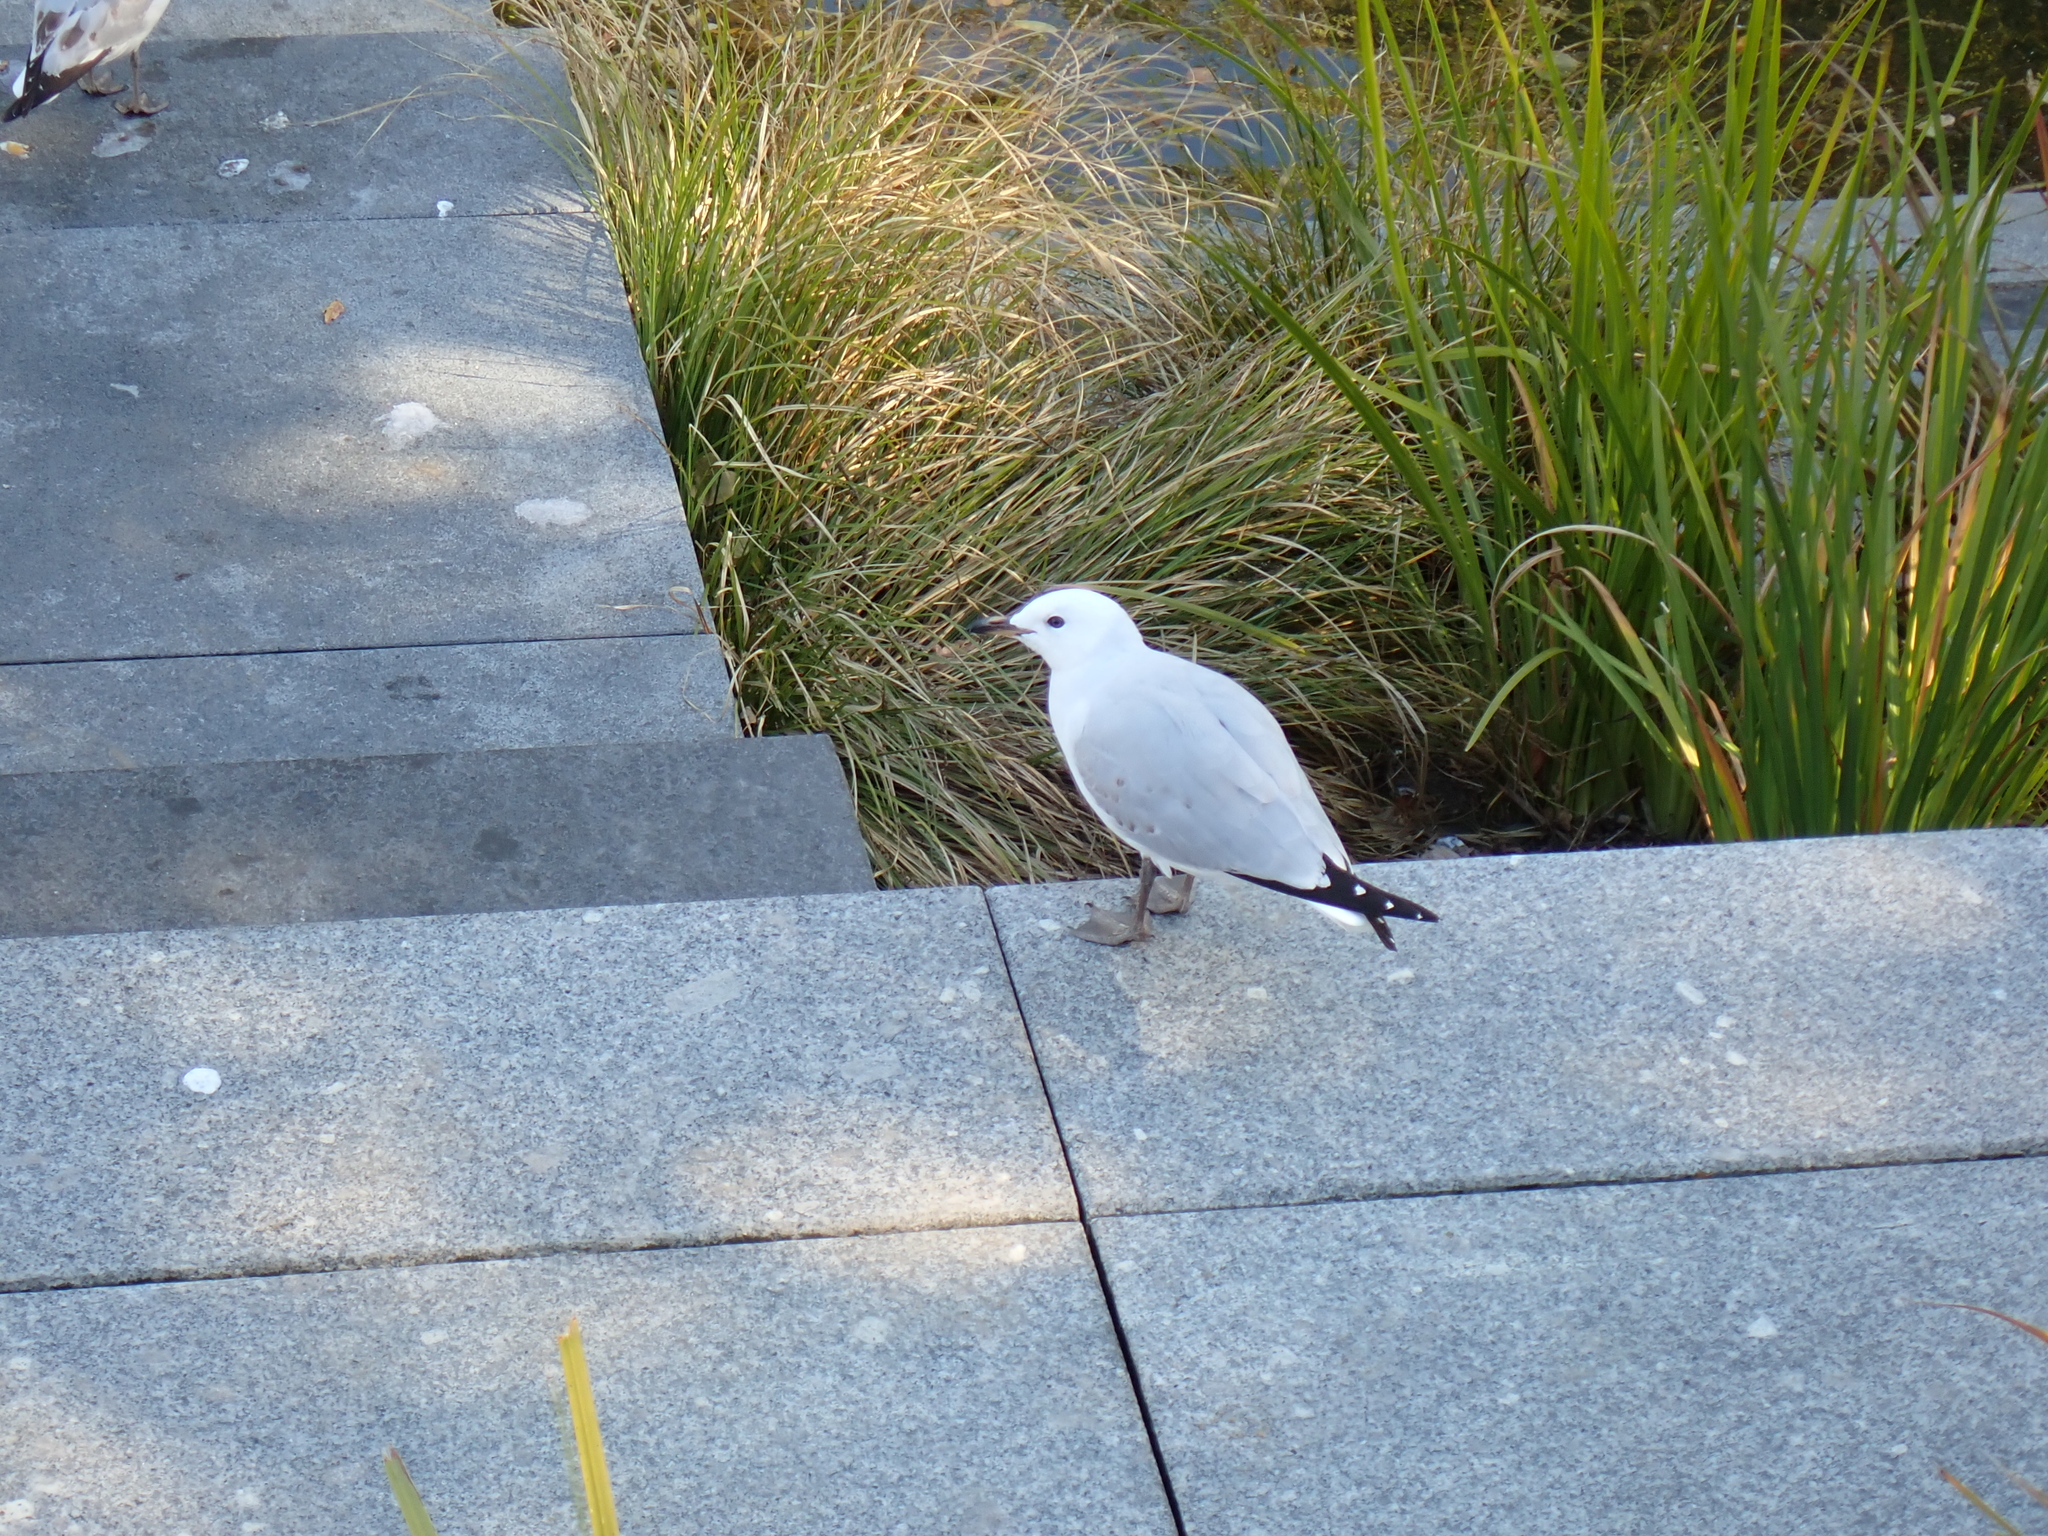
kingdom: Animalia
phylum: Chordata
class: Aves
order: Charadriiformes
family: Laridae
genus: Chroicocephalus
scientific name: Chroicocephalus novaehollandiae
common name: Silver gull
